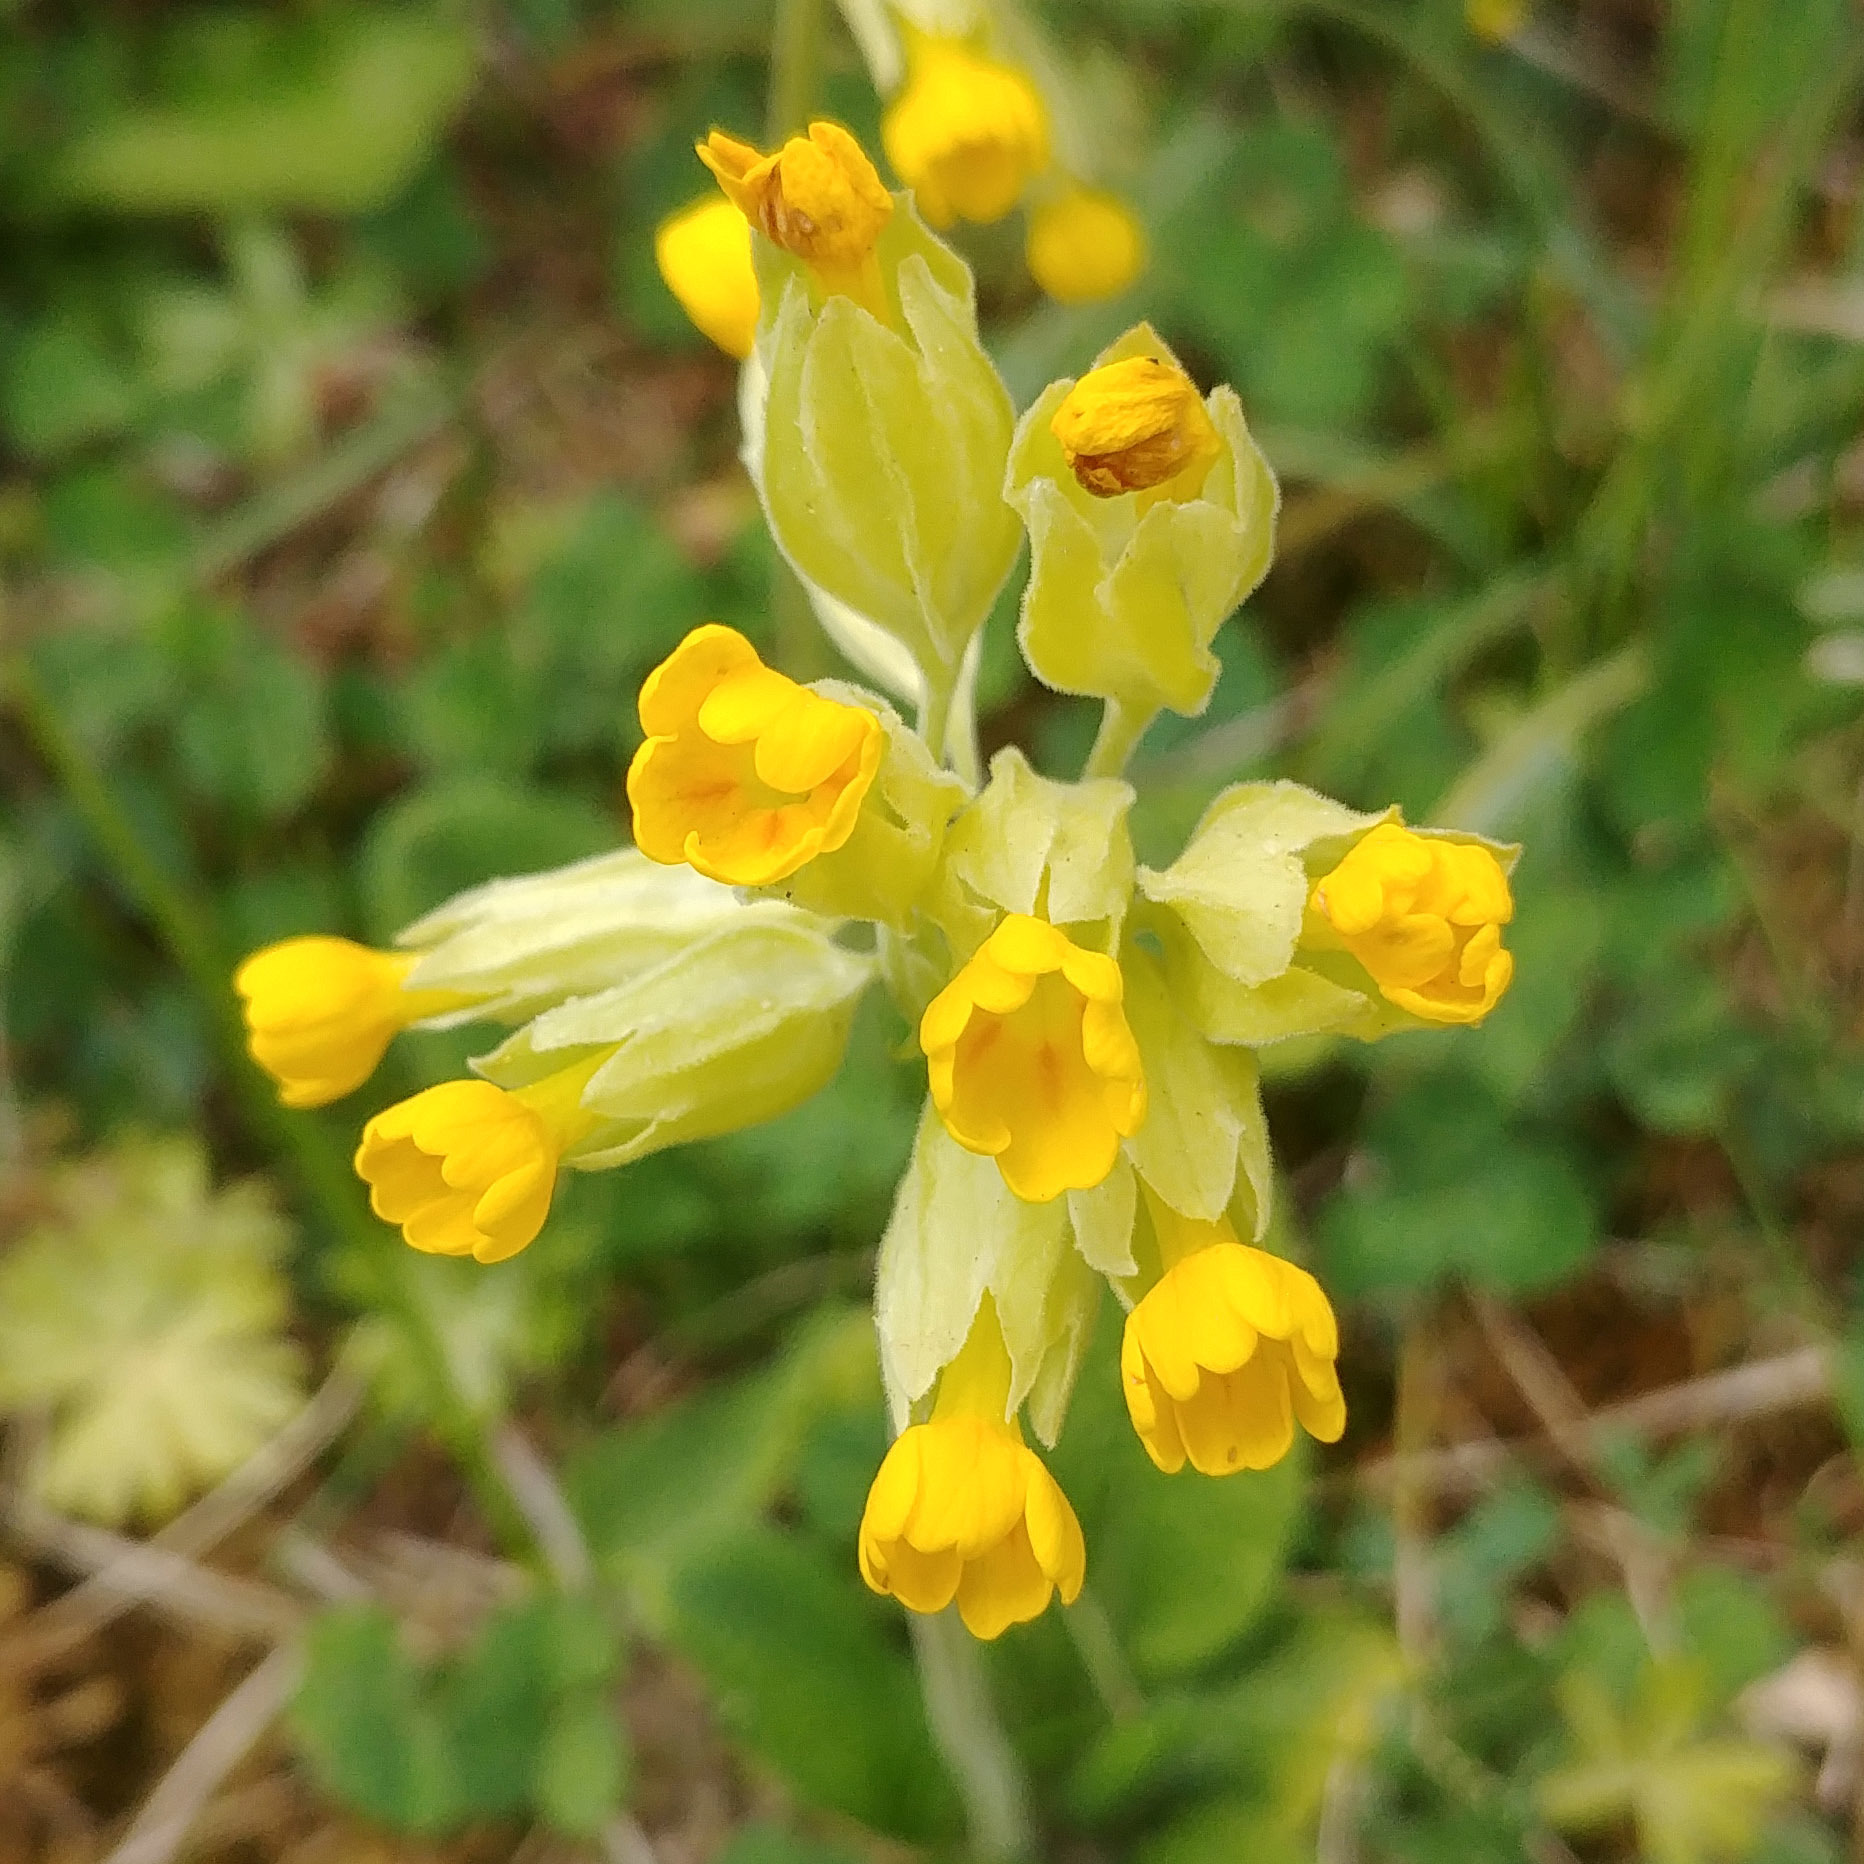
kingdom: Plantae
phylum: Tracheophyta
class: Magnoliopsida
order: Ericales
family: Primulaceae
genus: Primula
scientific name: Primula veris
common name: Cowslip
